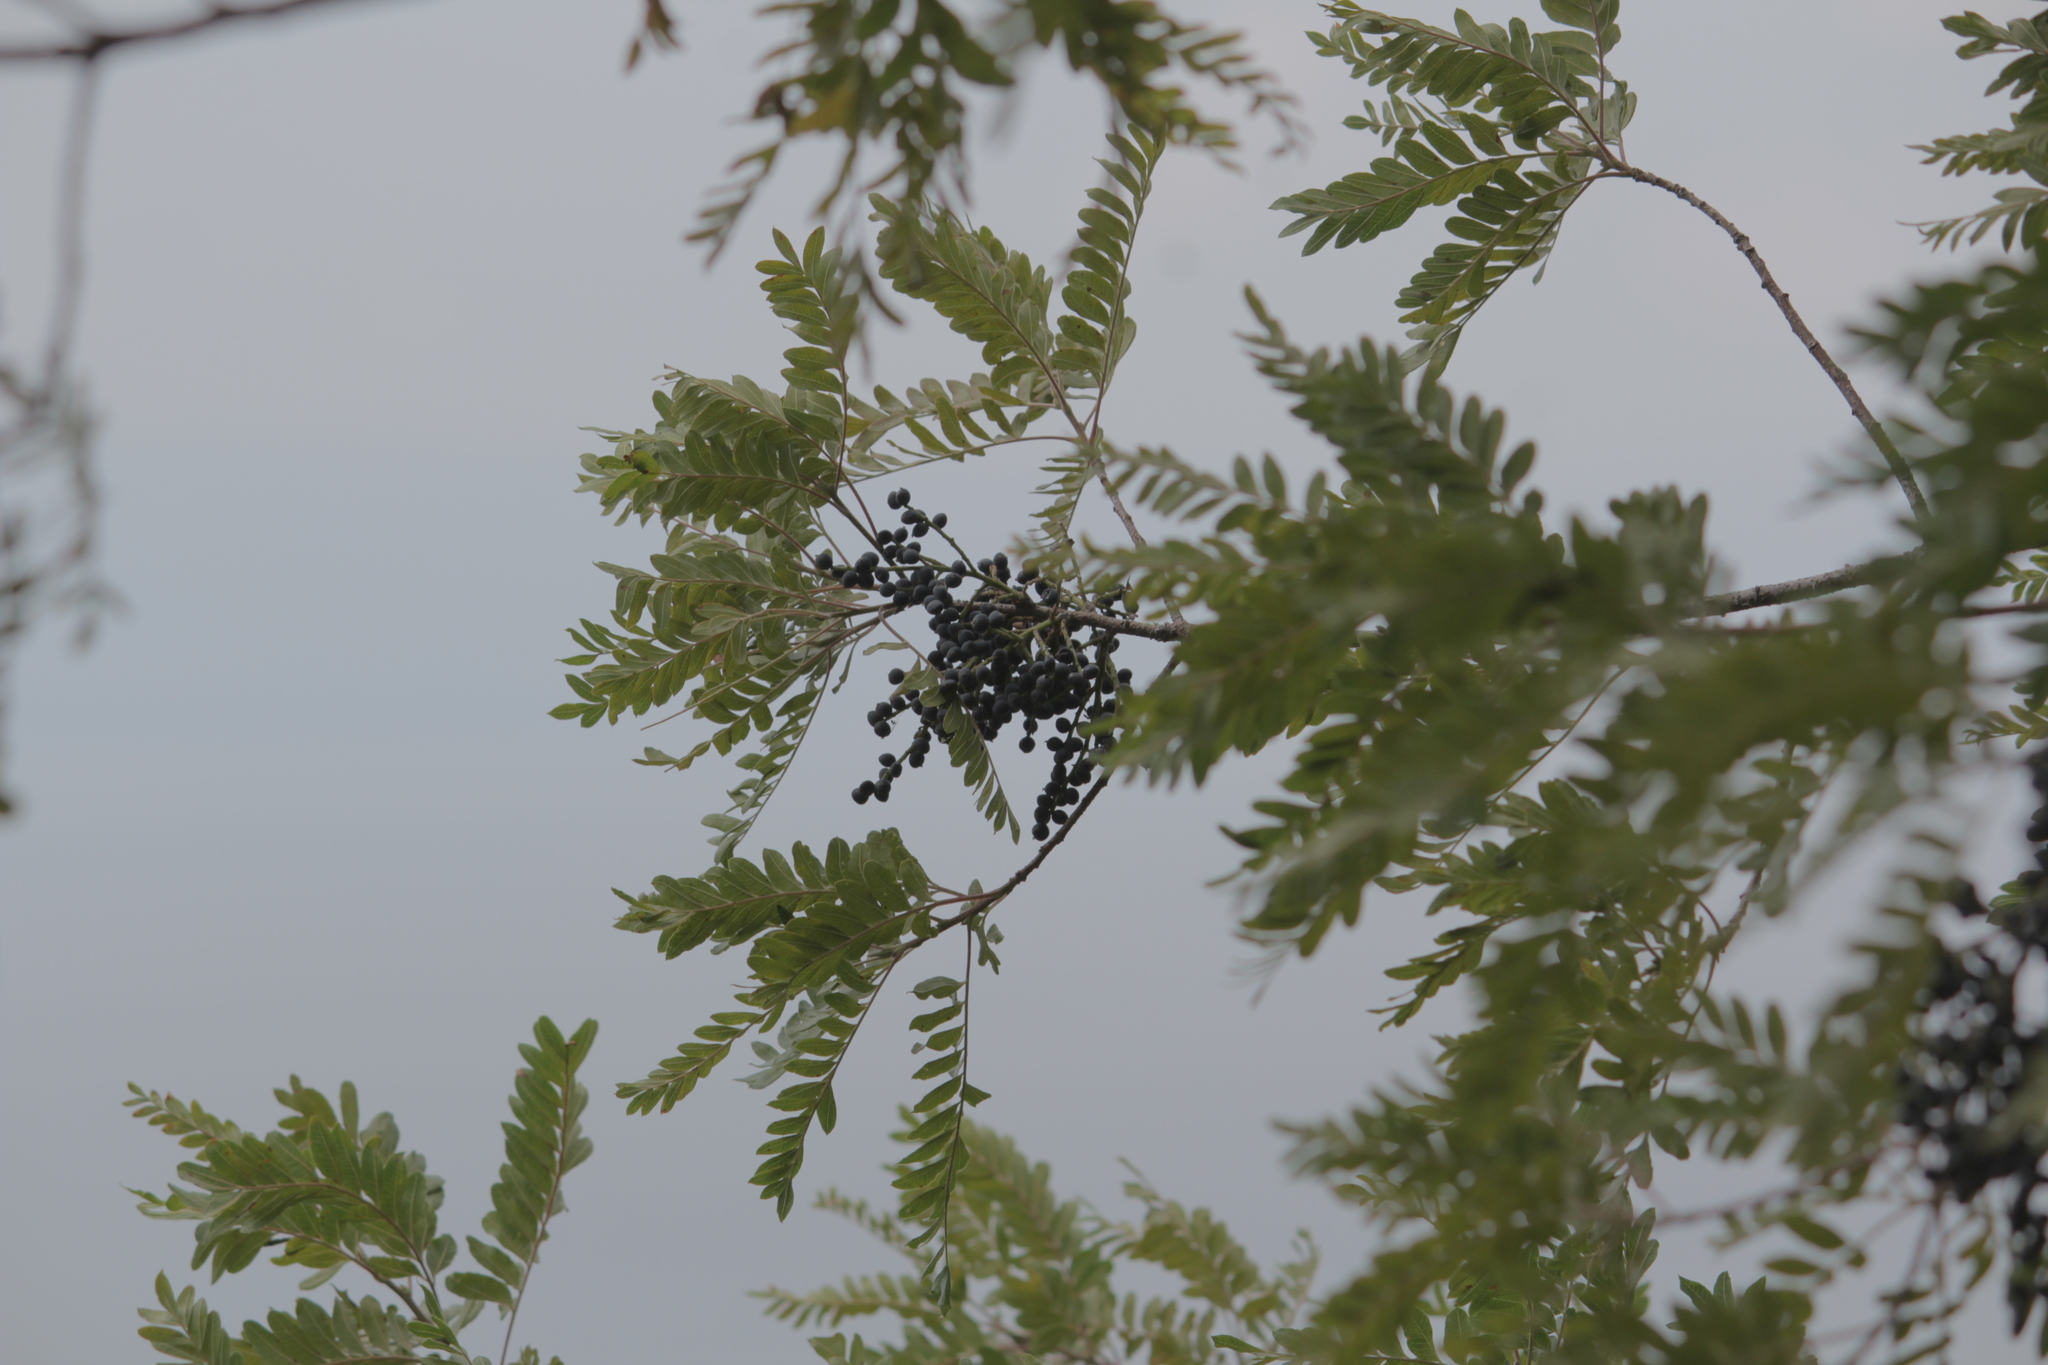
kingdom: Plantae
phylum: Tracheophyta
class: Magnoliopsida
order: Sapindales
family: Anacardiaceae
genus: Pistacia
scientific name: Pistacia mexicana
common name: Mexican pistachio
